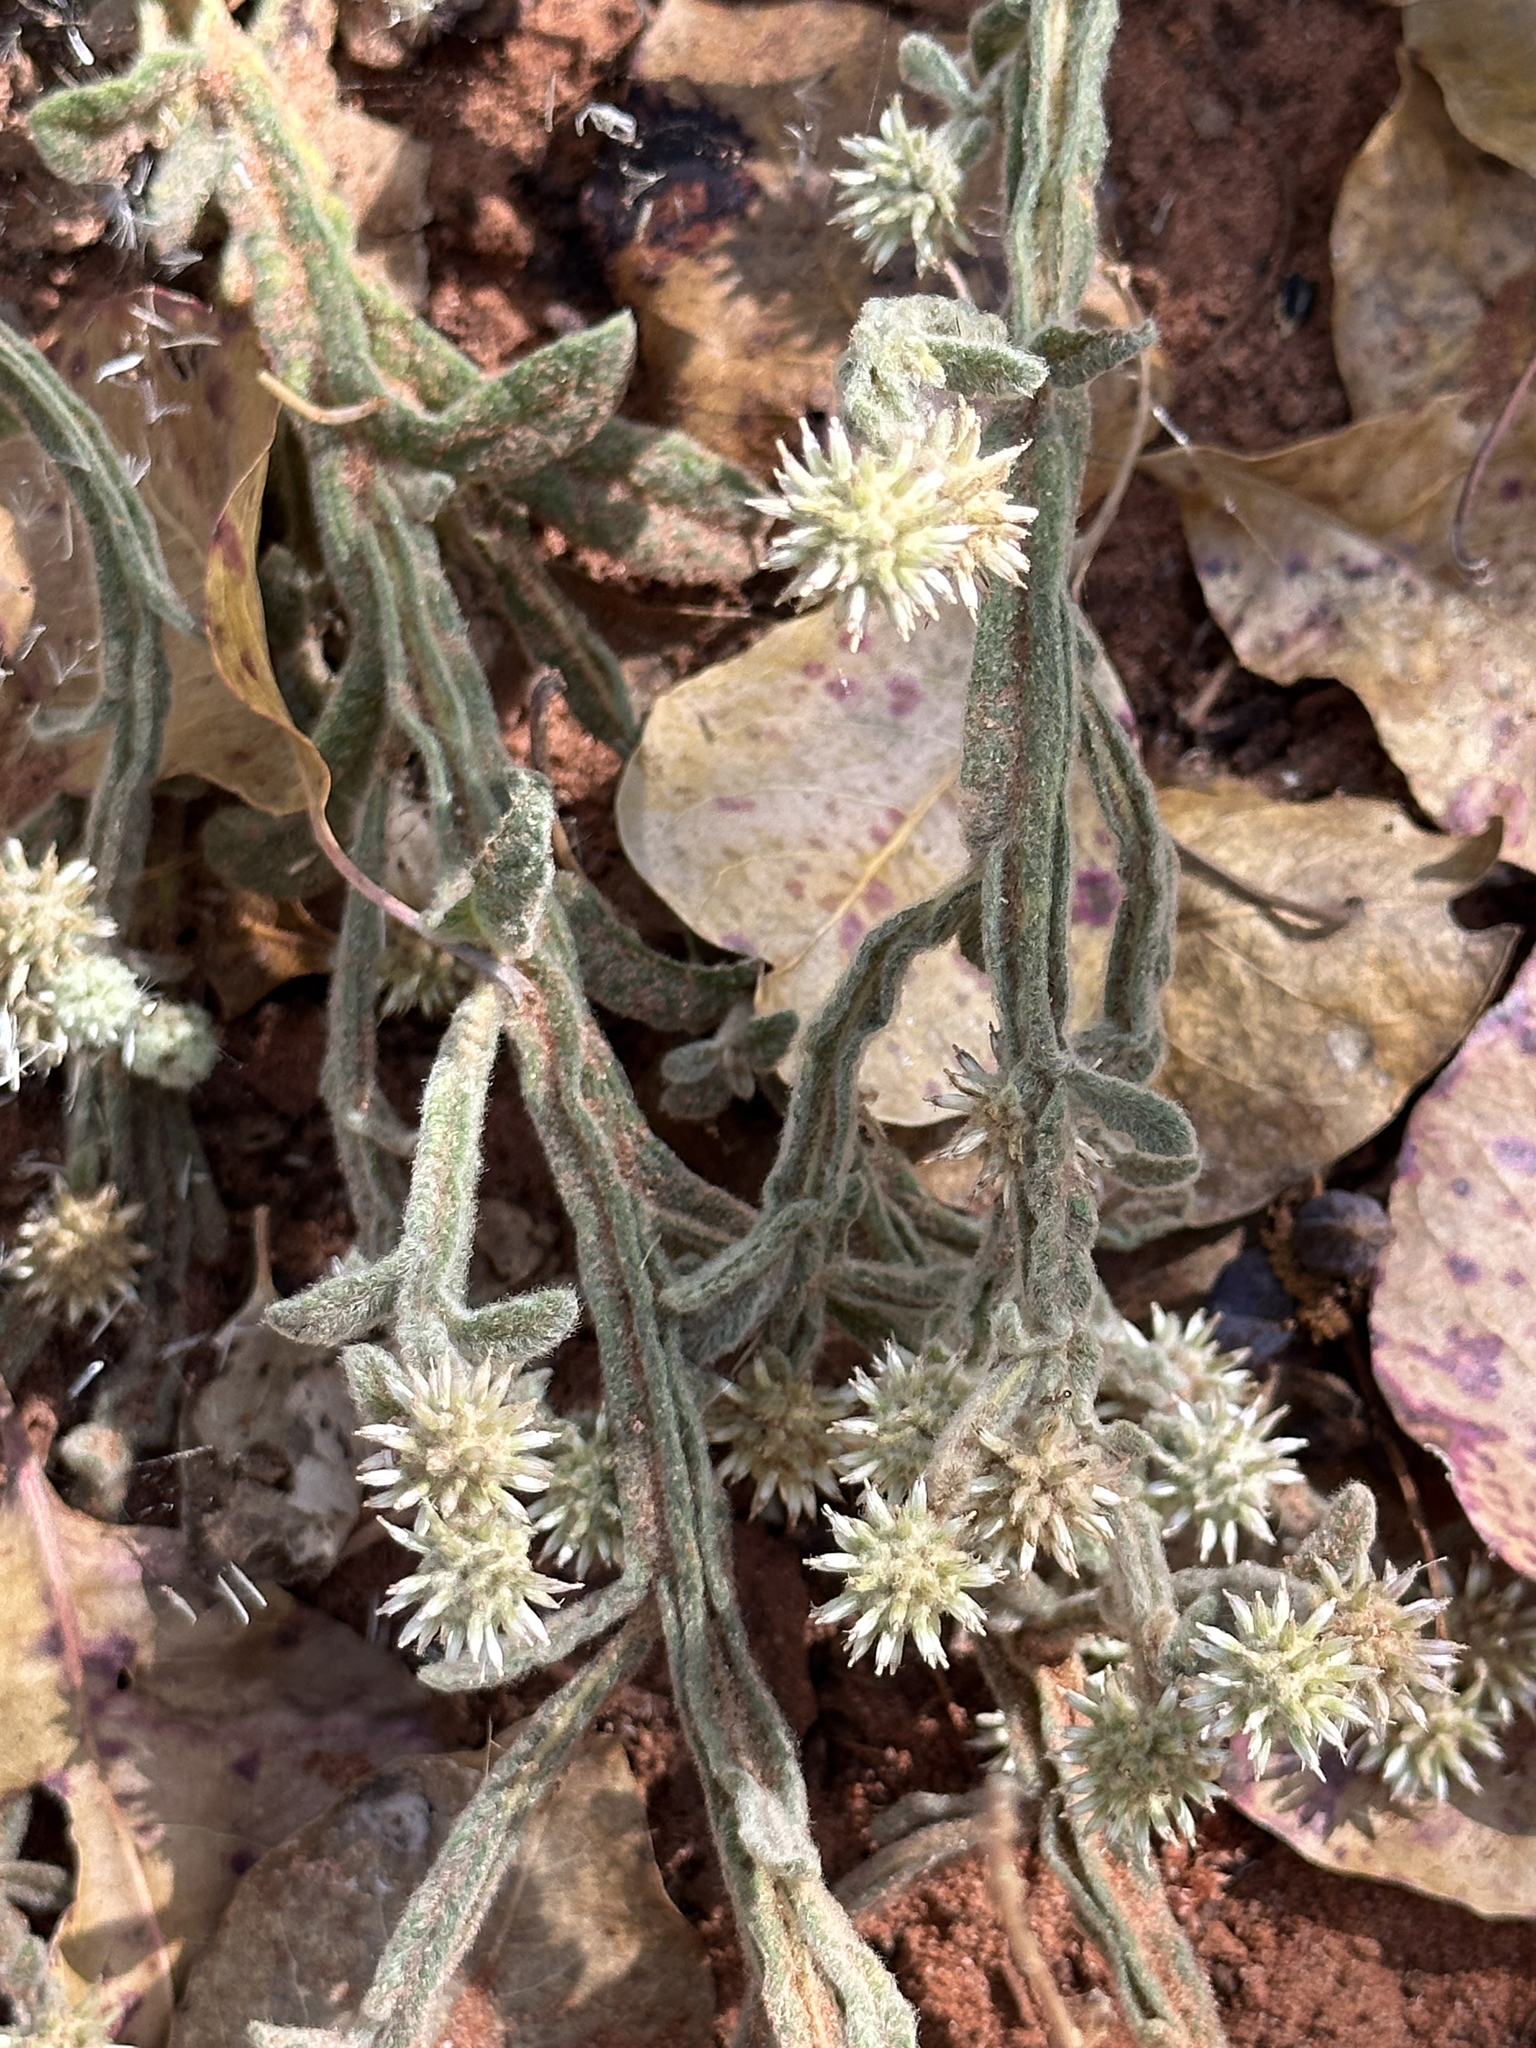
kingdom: Plantae
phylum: Tracheophyta
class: Magnoliopsida
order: Asterales
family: Asteraceae
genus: Pterocaulon
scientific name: Pterocaulon sphacelatum
